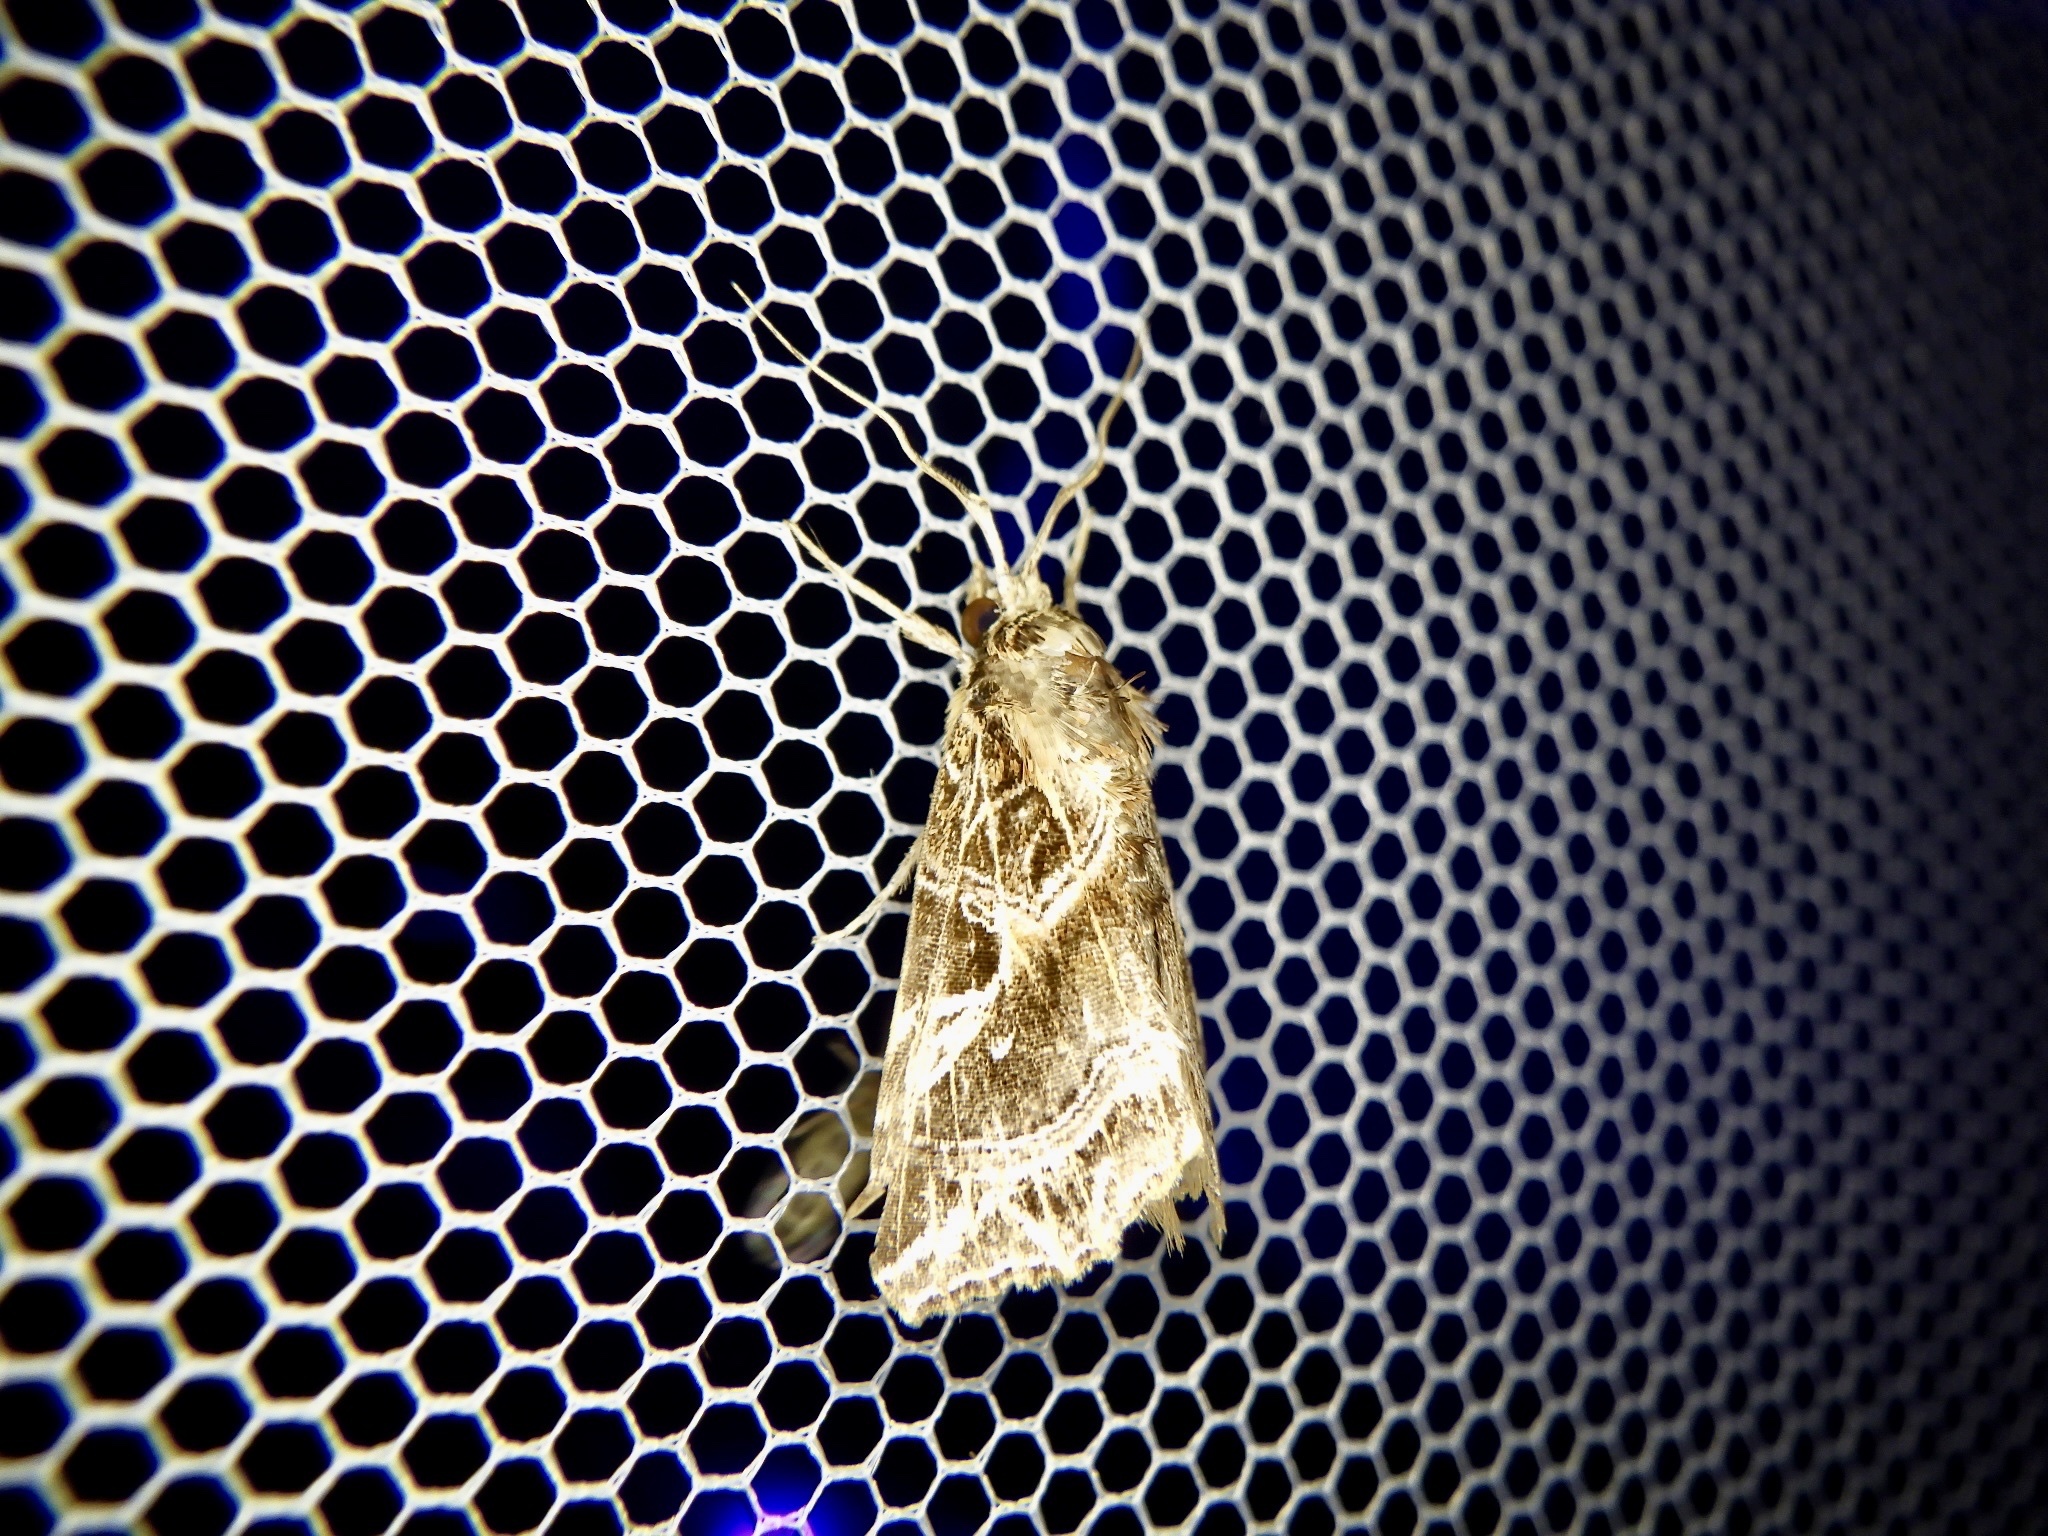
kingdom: Animalia
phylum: Arthropoda
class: Insecta
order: Lepidoptera
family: Noctuidae
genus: Callopistria
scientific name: Callopistria aethiops
